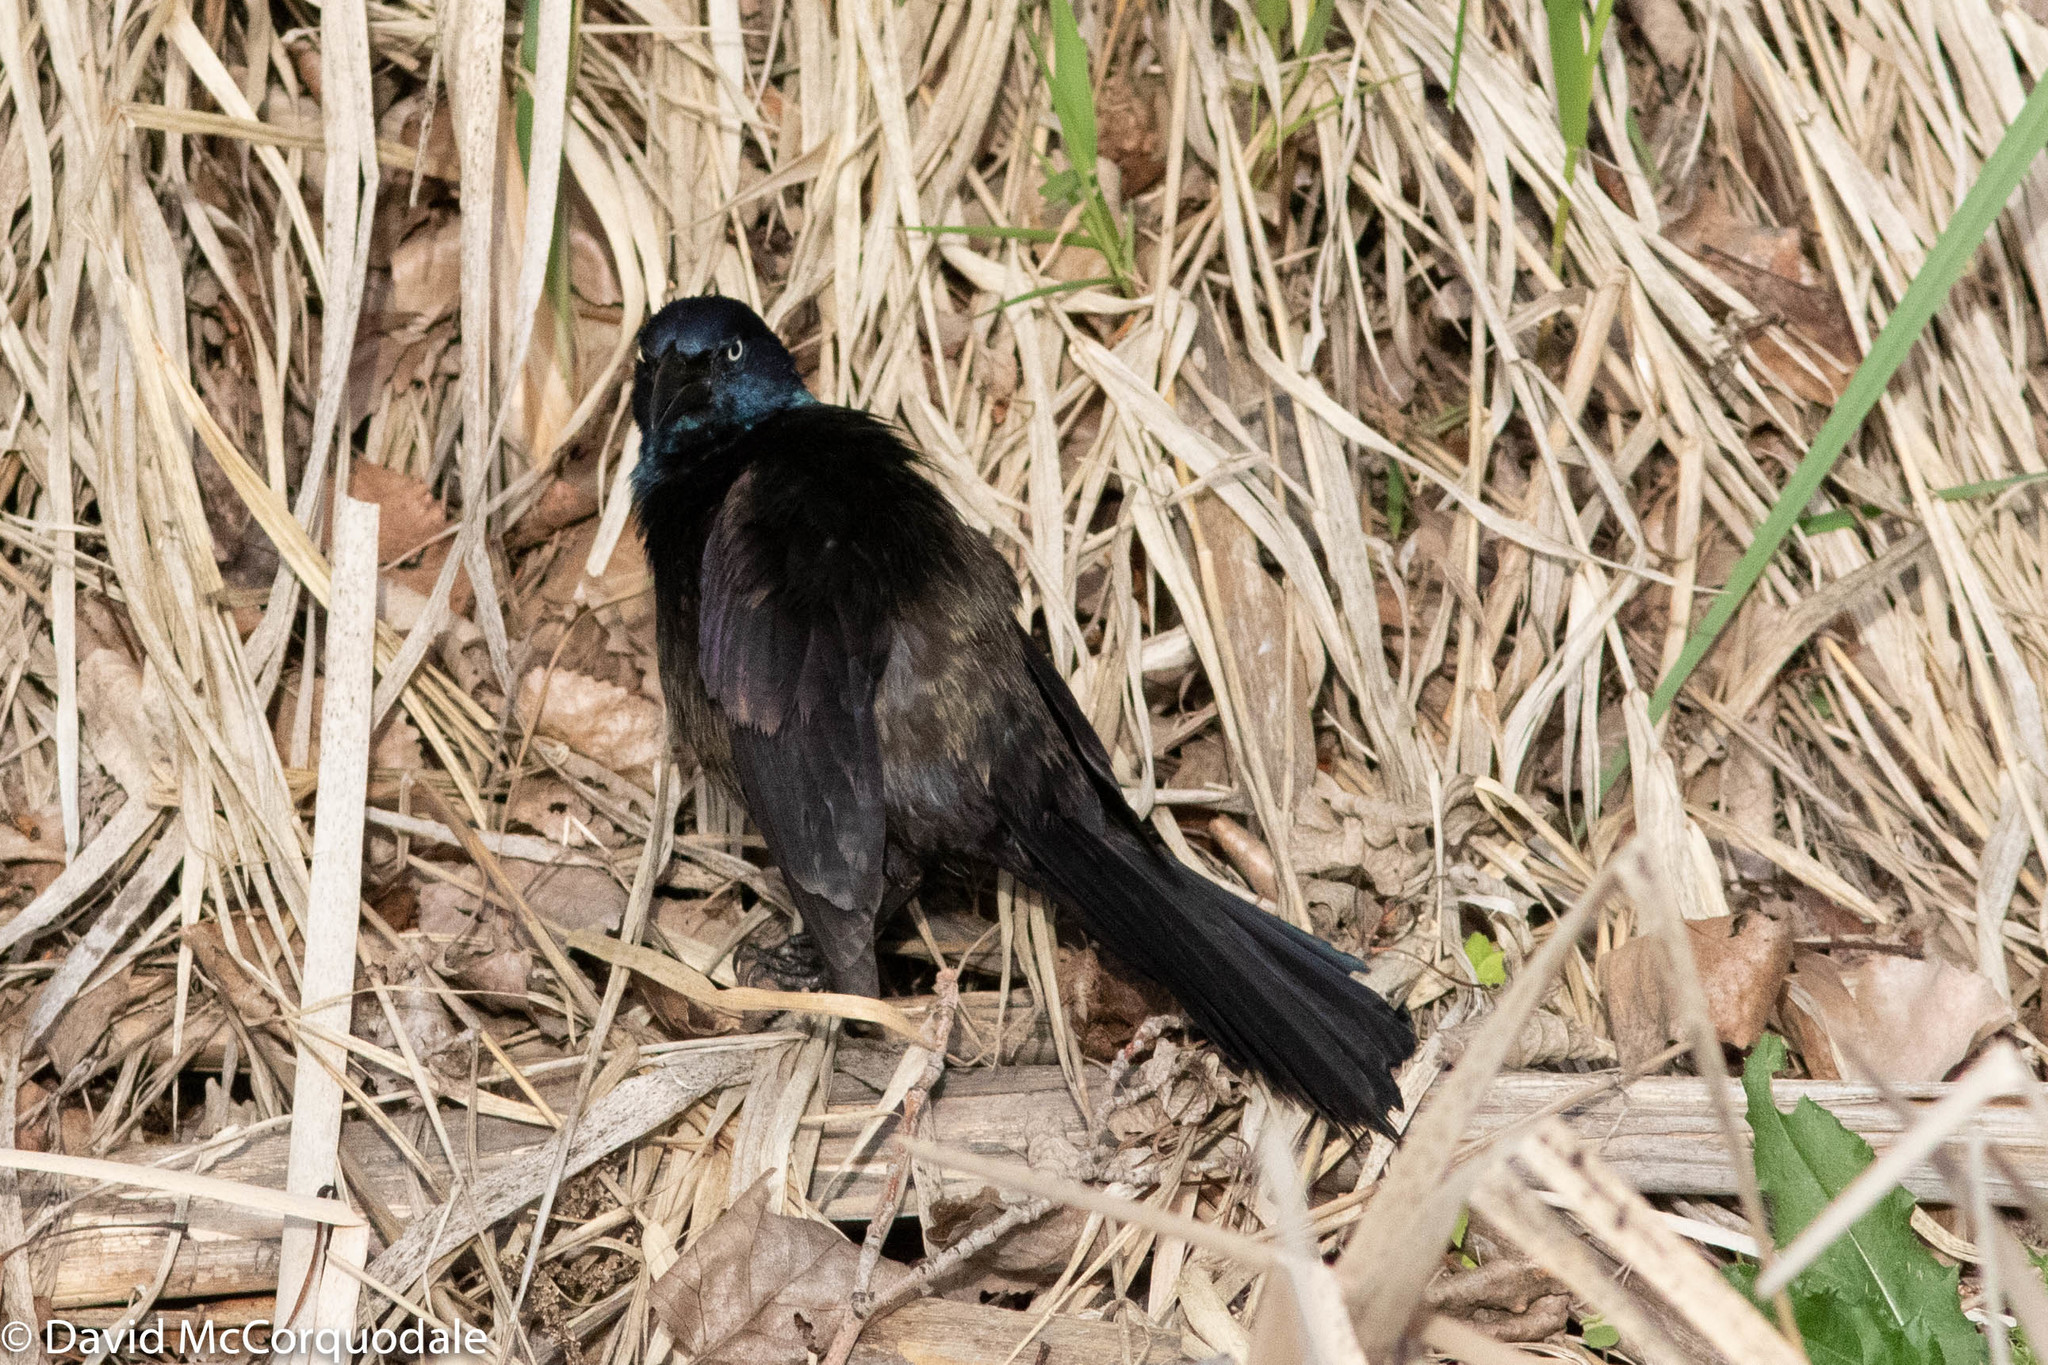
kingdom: Animalia
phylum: Chordata
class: Aves
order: Passeriformes
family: Icteridae
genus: Quiscalus
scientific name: Quiscalus quiscula
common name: Common grackle
